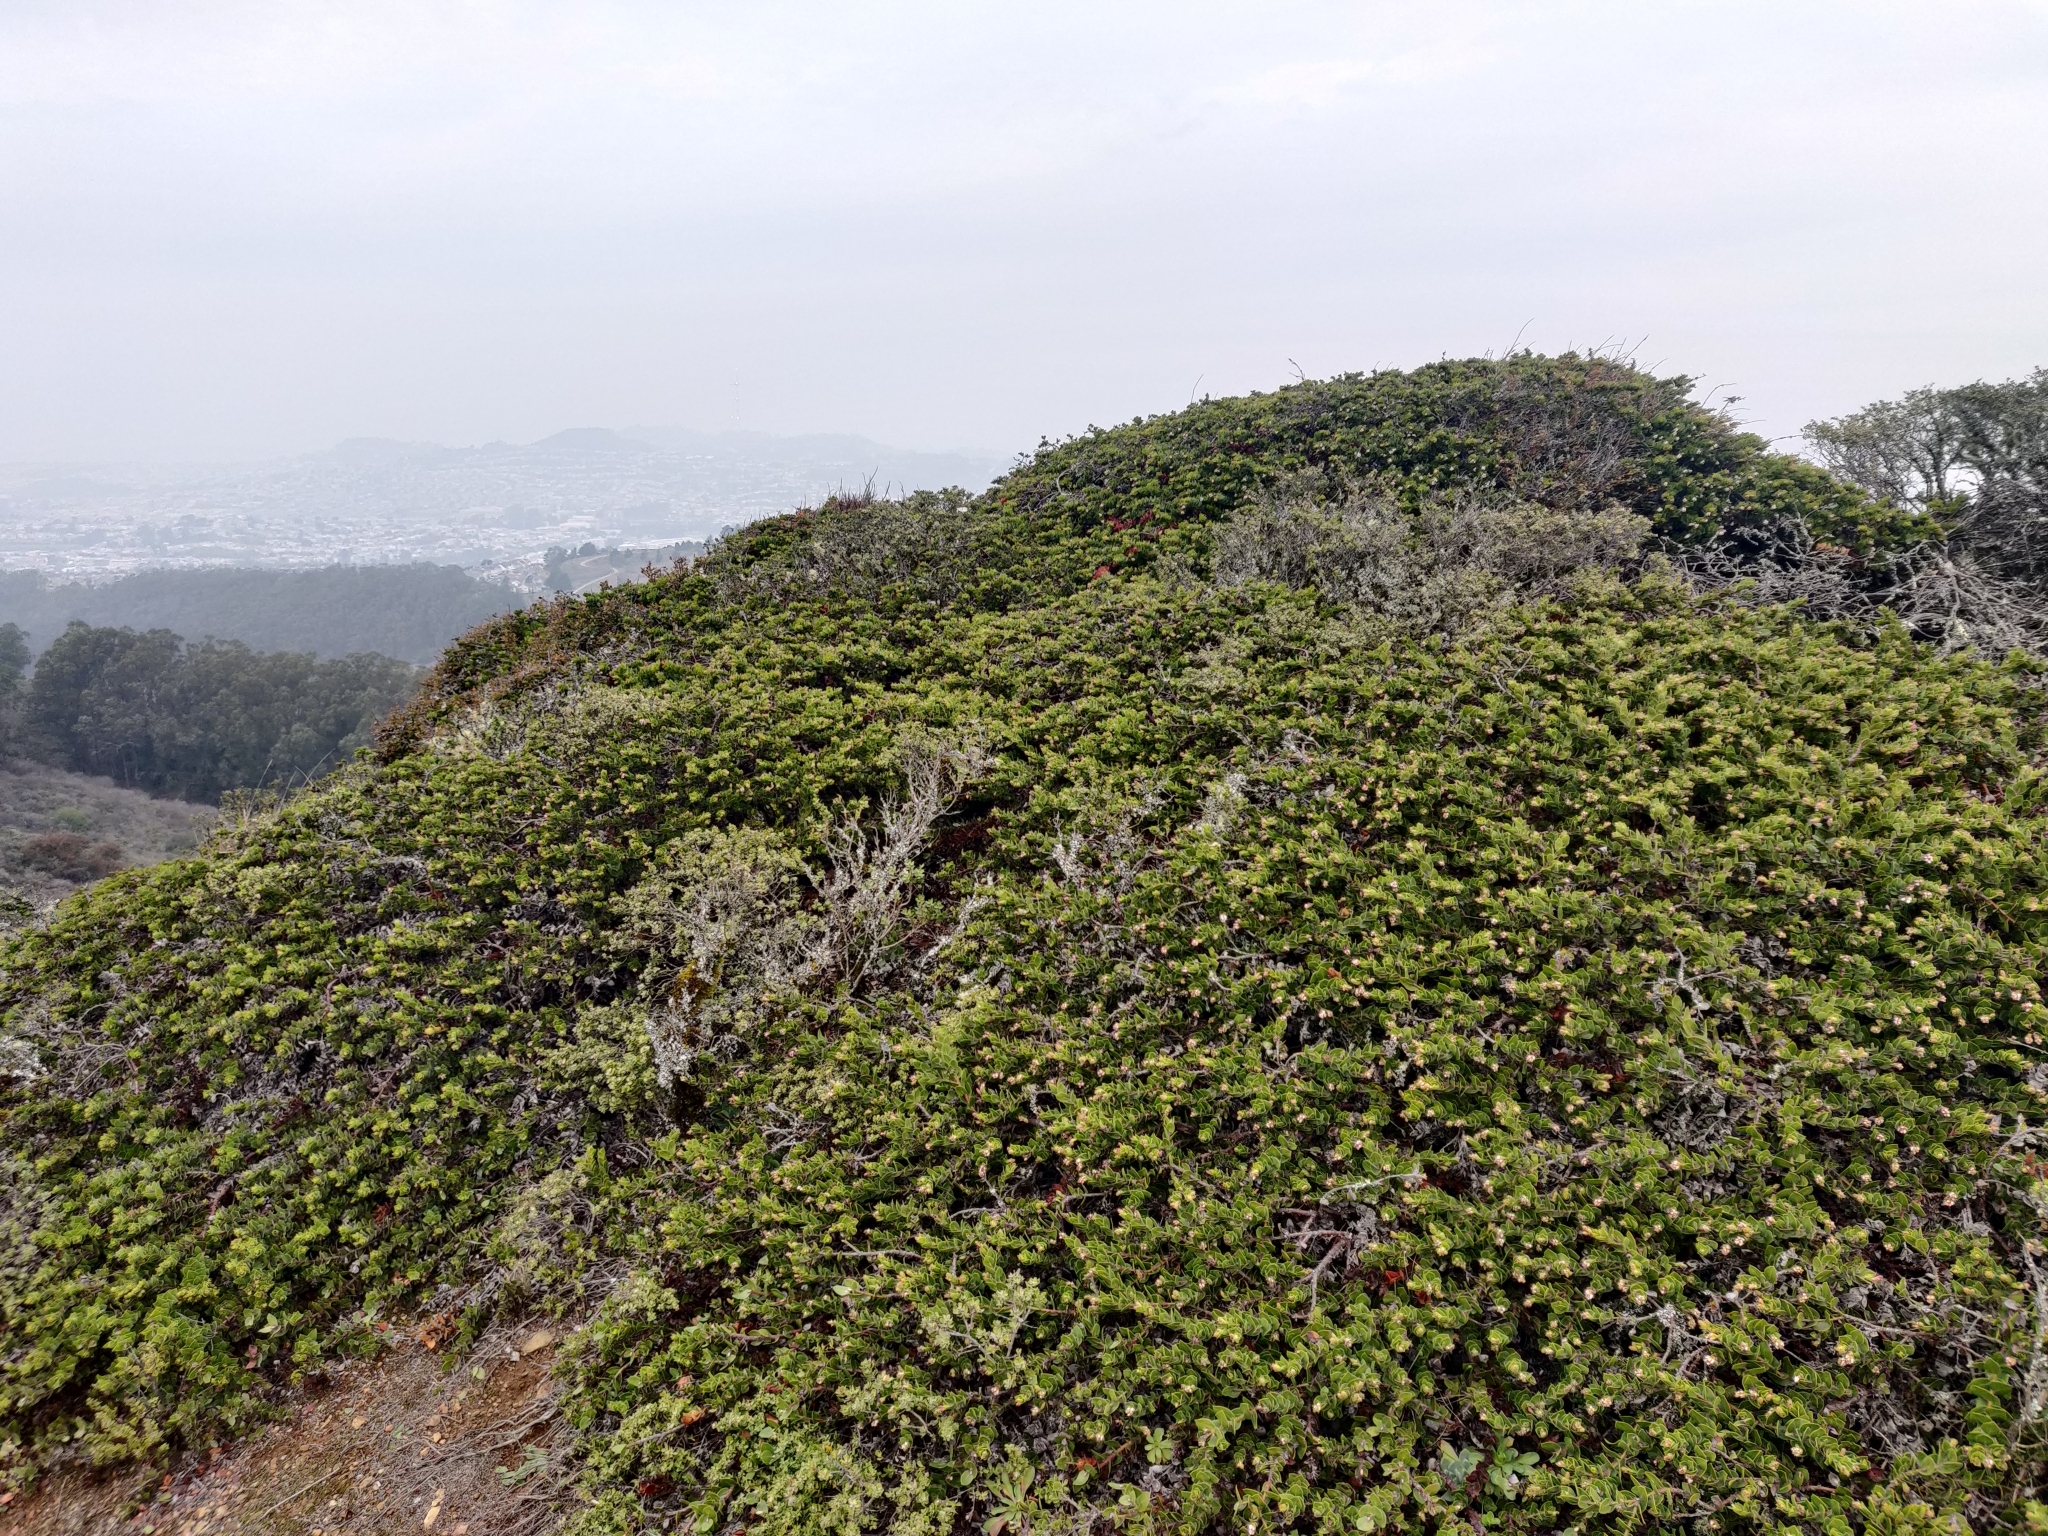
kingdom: Plantae
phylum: Tracheophyta
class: Magnoliopsida
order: Ericales
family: Ericaceae
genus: Arctostaphylos
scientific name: Arctostaphylos imbricata
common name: San bruno mountain manzanita
